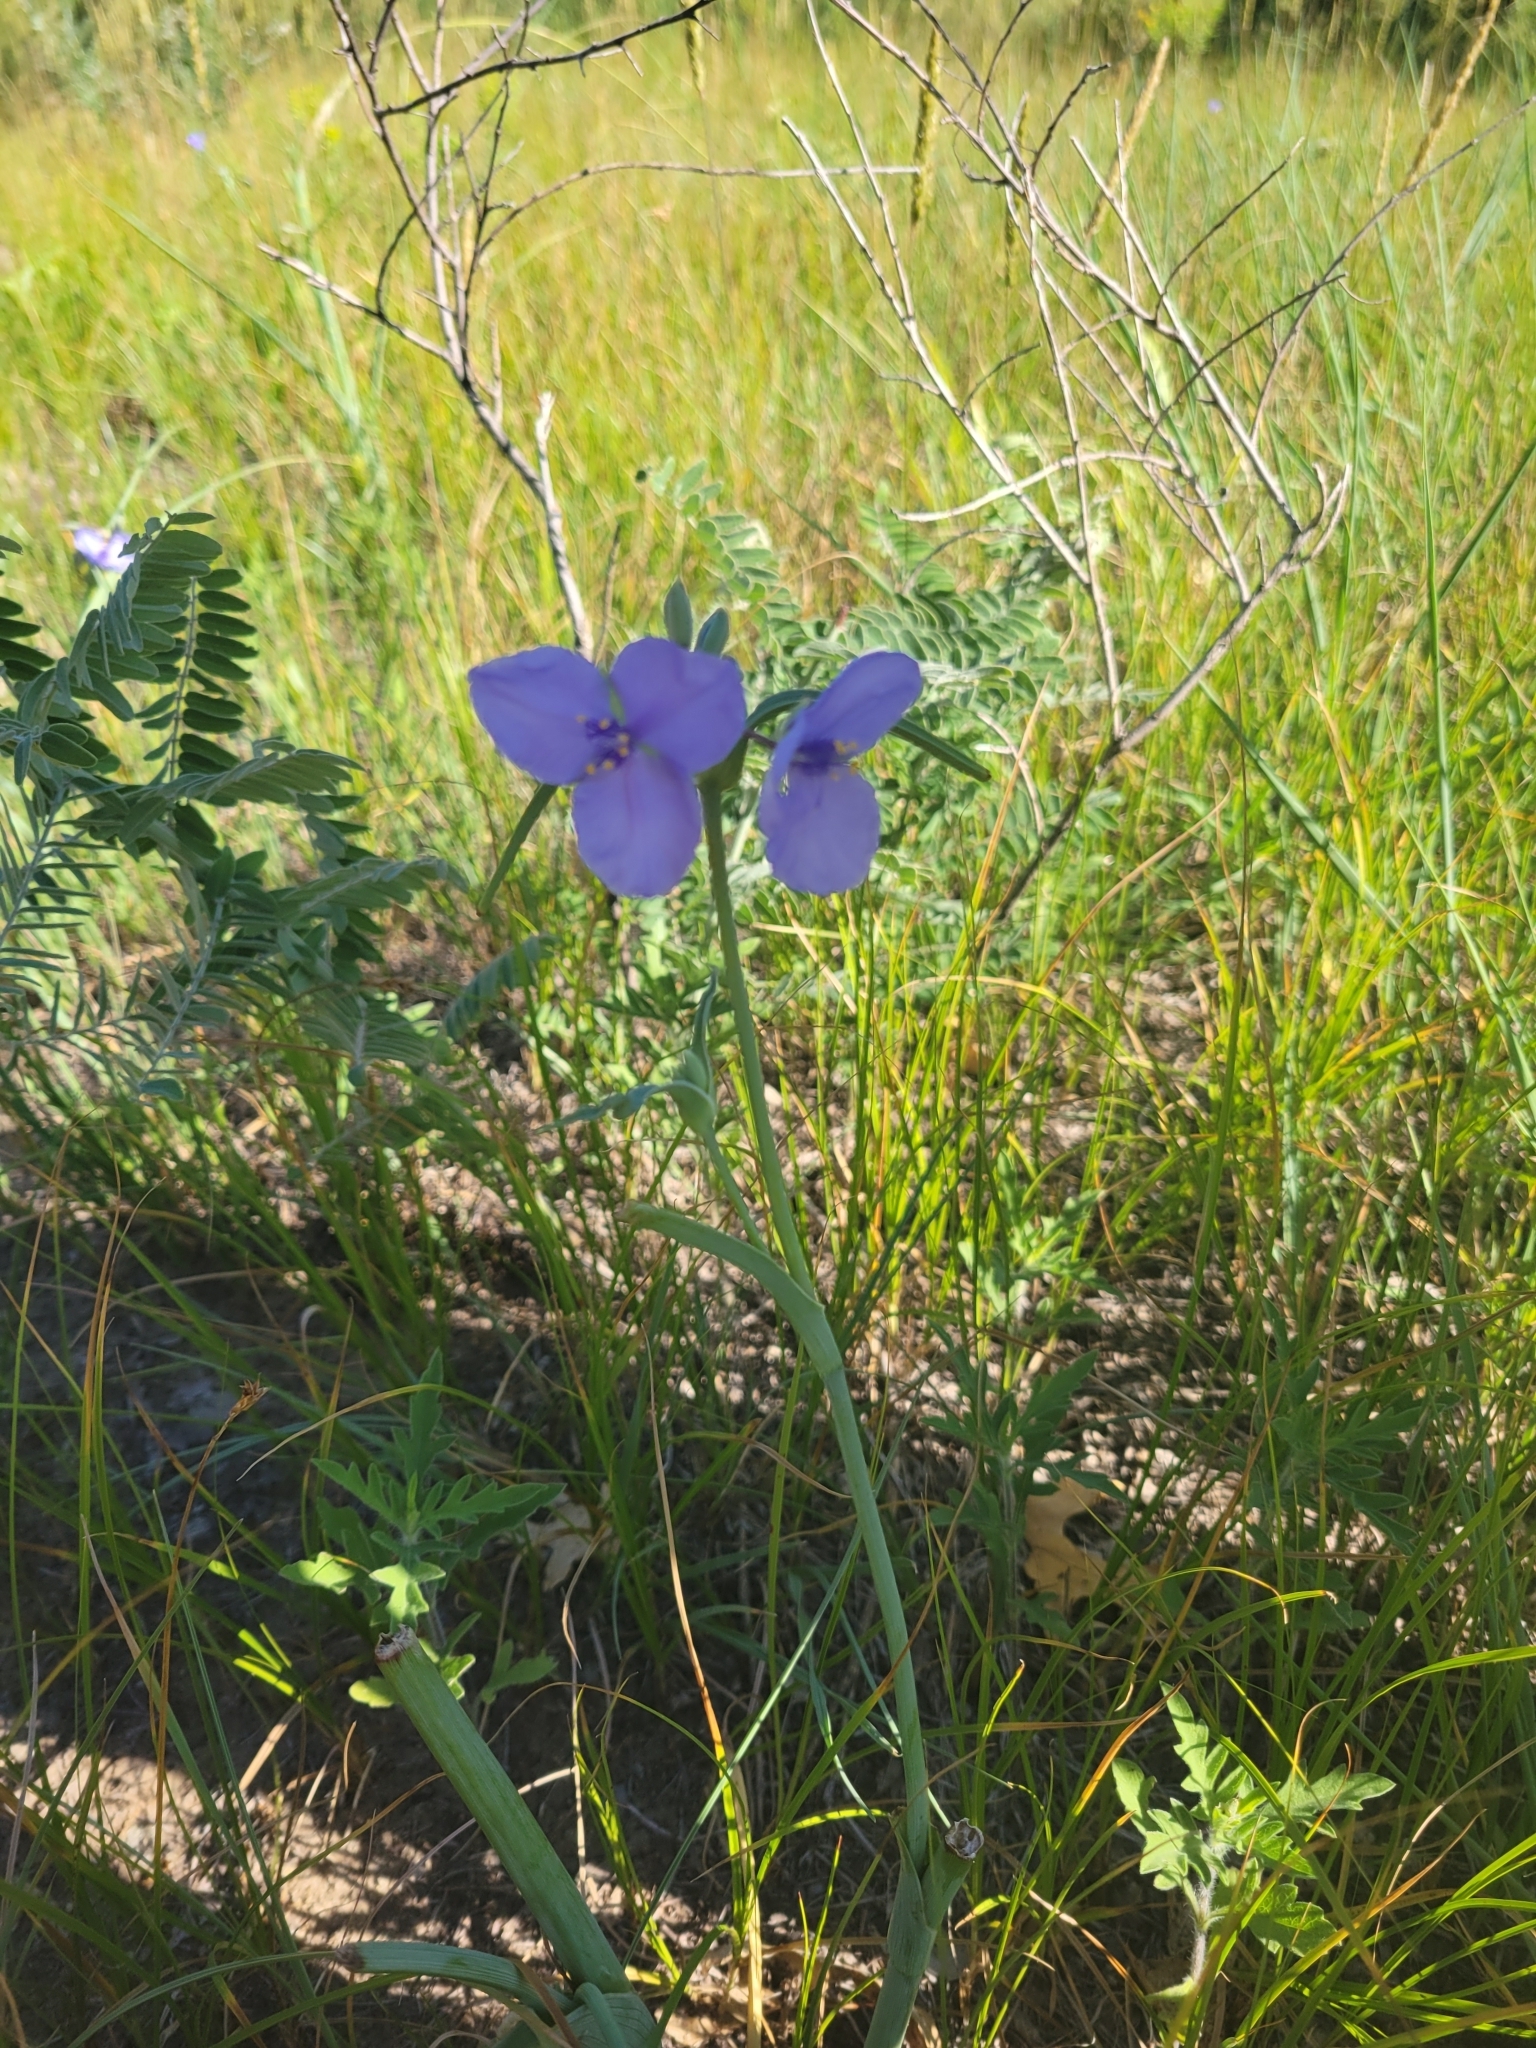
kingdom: Plantae
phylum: Tracheophyta
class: Liliopsida
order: Commelinales
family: Commelinaceae
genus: Tradescantia
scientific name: Tradescantia occidentalis
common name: Prairie spiderwort
